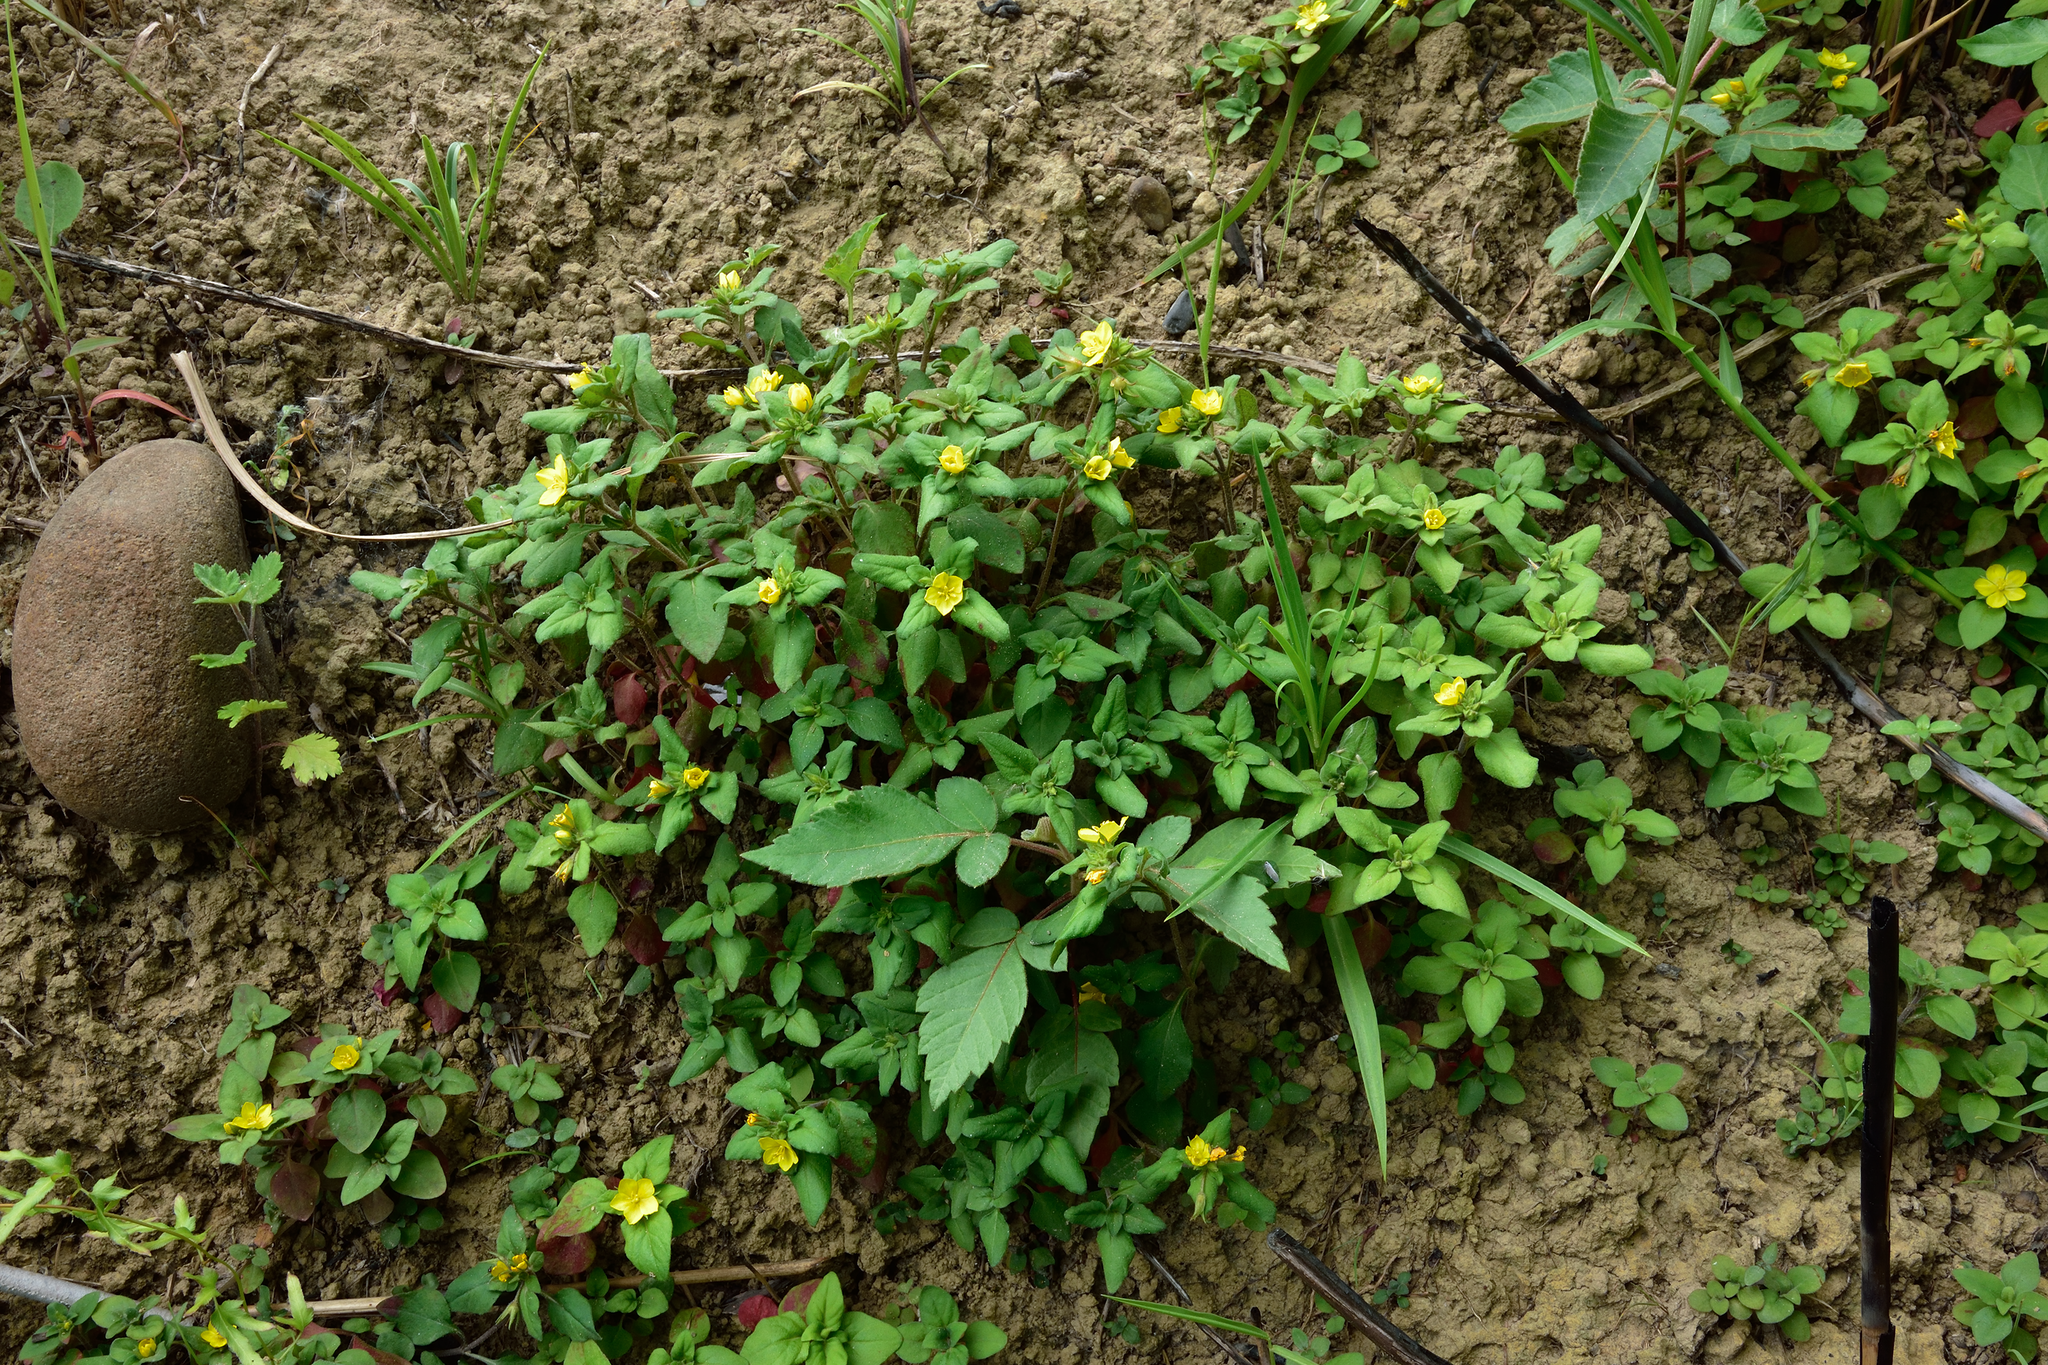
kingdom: Plantae
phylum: Tracheophyta
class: Magnoliopsida
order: Ericales
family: Primulaceae
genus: Lysimachia
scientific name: Lysimachia remota
